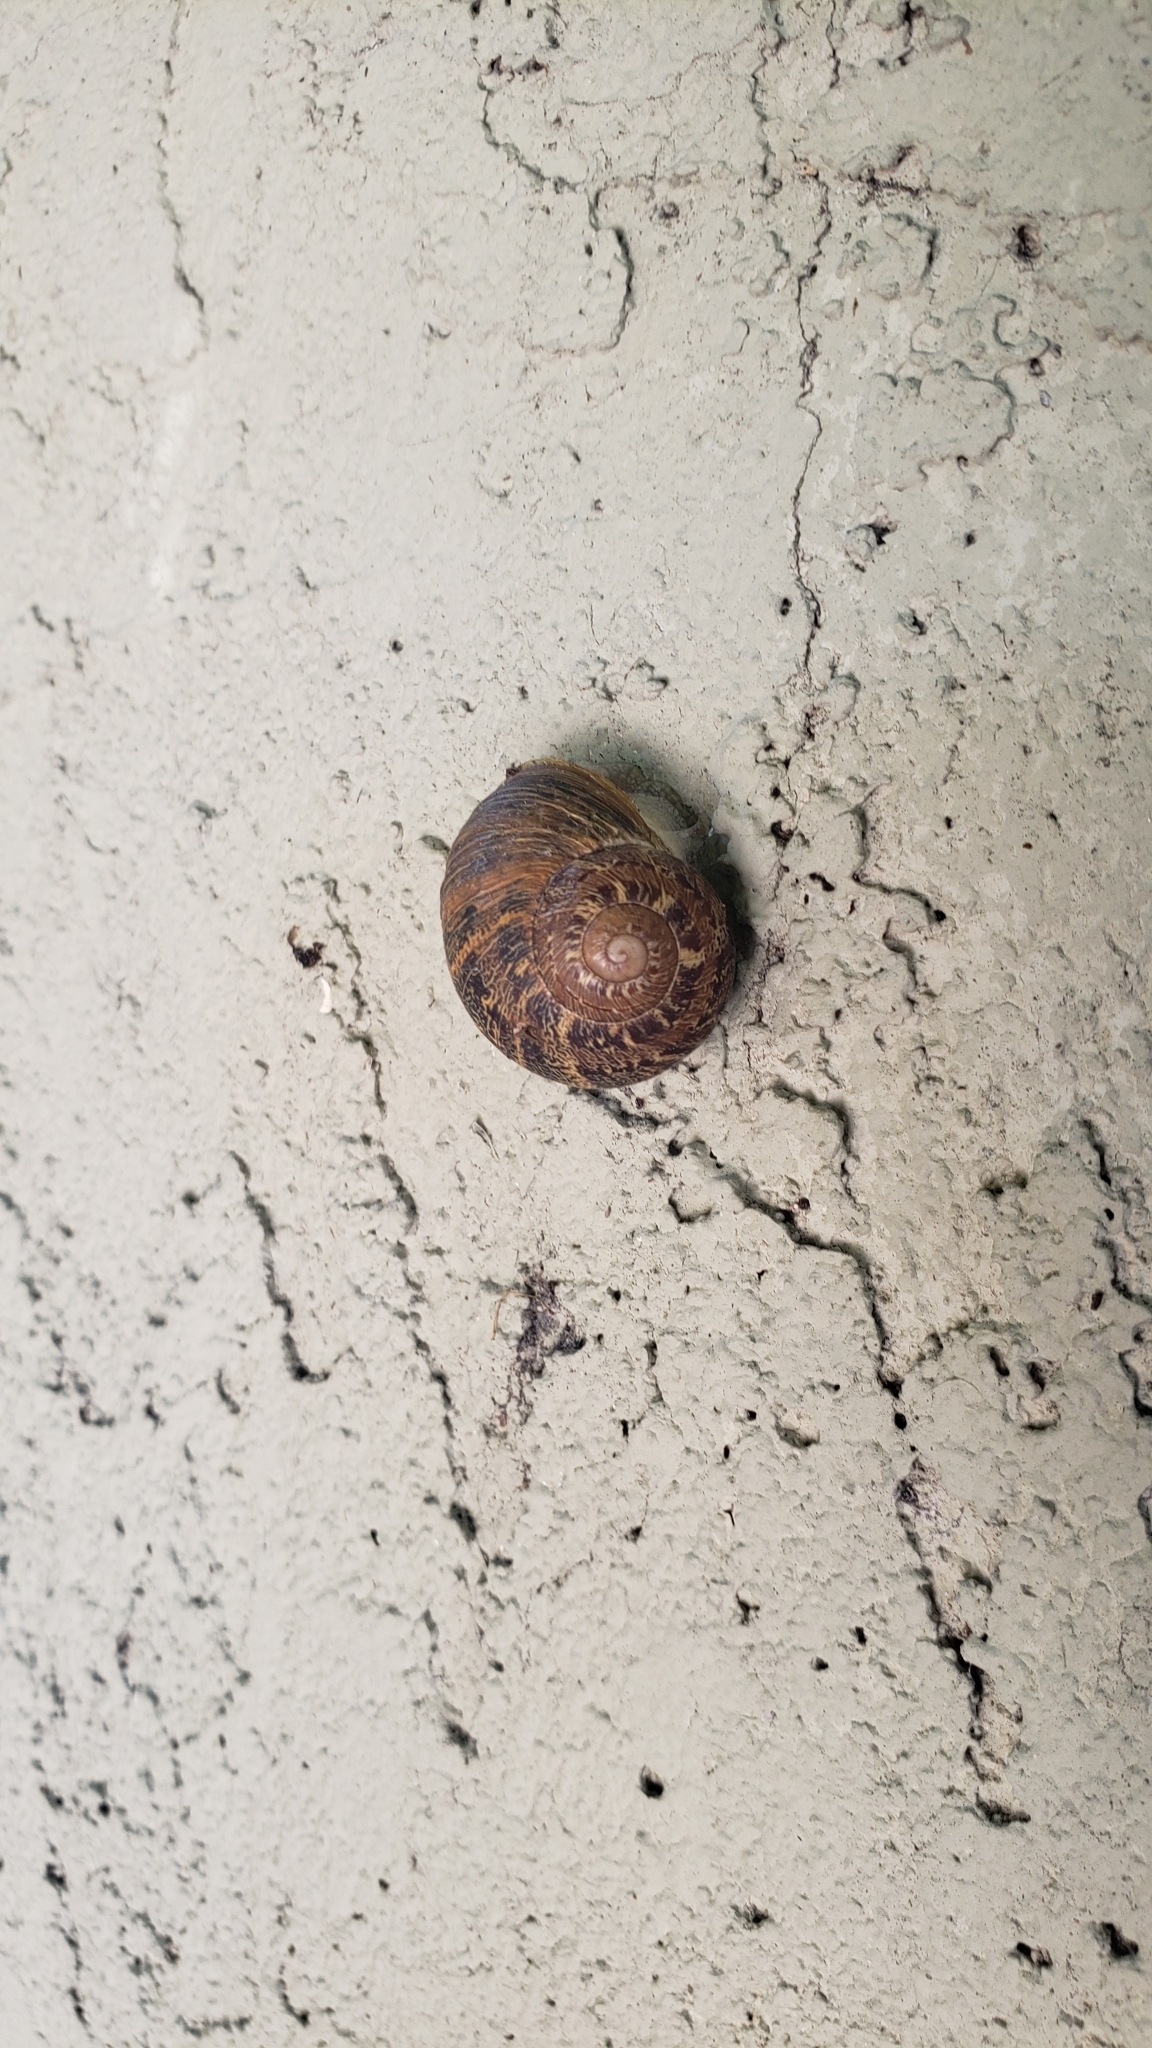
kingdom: Animalia
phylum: Mollusca
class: Gastropoda
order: Stylommatophora
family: Helicidae
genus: Cornu
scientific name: Cornu aspersum
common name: Brown garden snail
